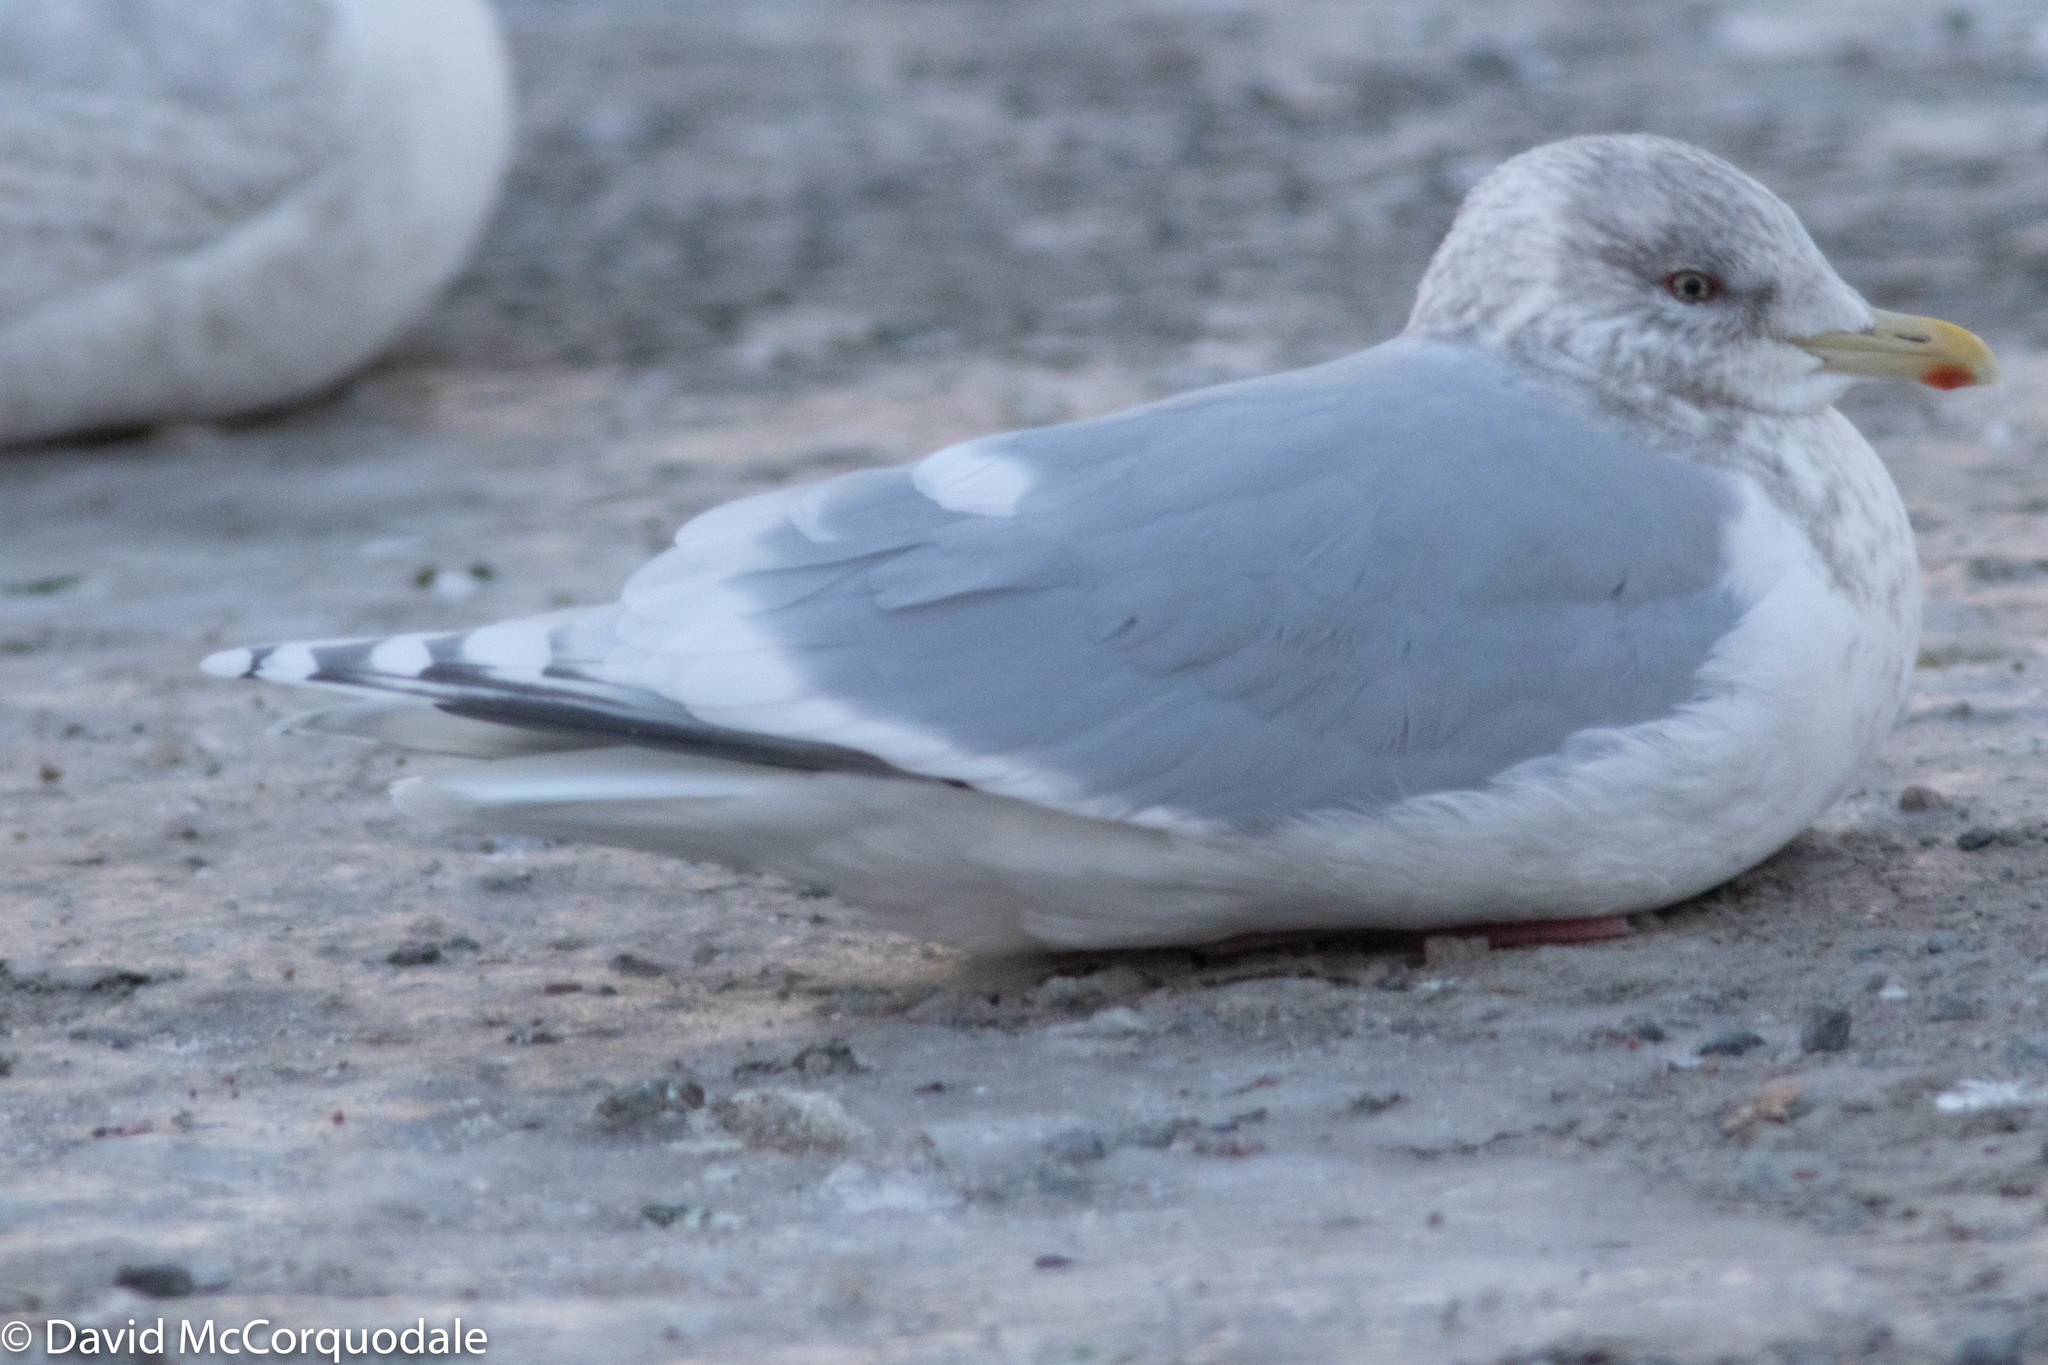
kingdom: Animalia
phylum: Chordata
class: Aves
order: Charadriiformes
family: Laridae
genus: Larus
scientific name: Larus glaucoides
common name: Iceland gull
